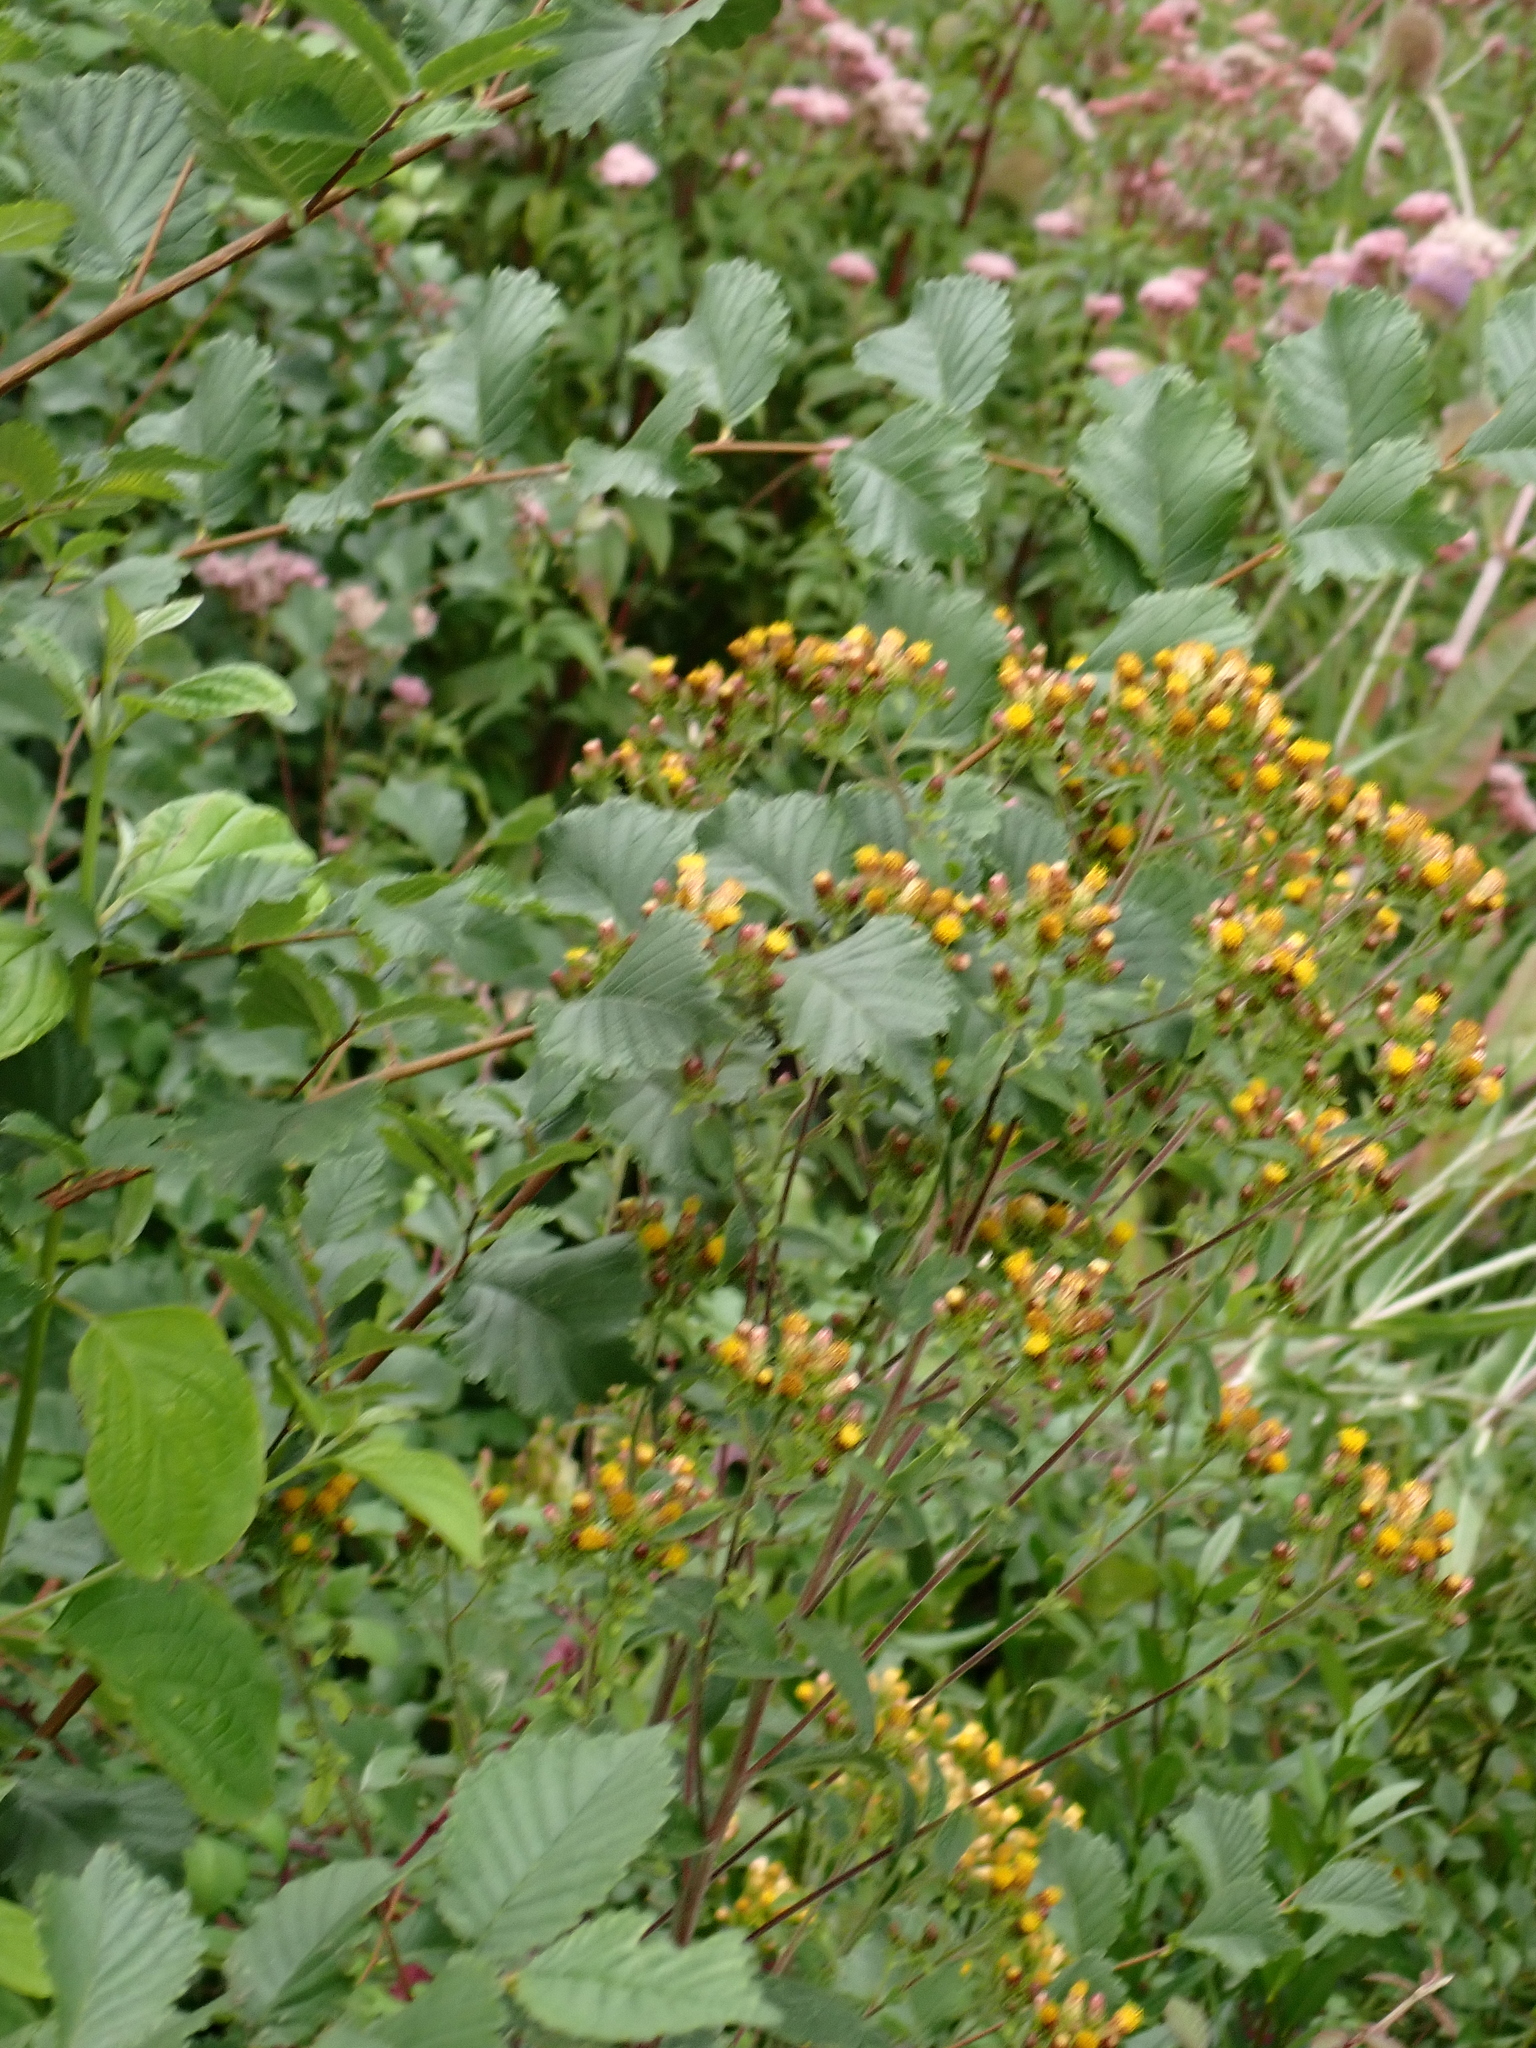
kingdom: Plantae
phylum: Tracheophyta
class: Magnoliopsida
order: Asterales
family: Asteraceae
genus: Pentanema
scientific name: Pentanema squarrosum
